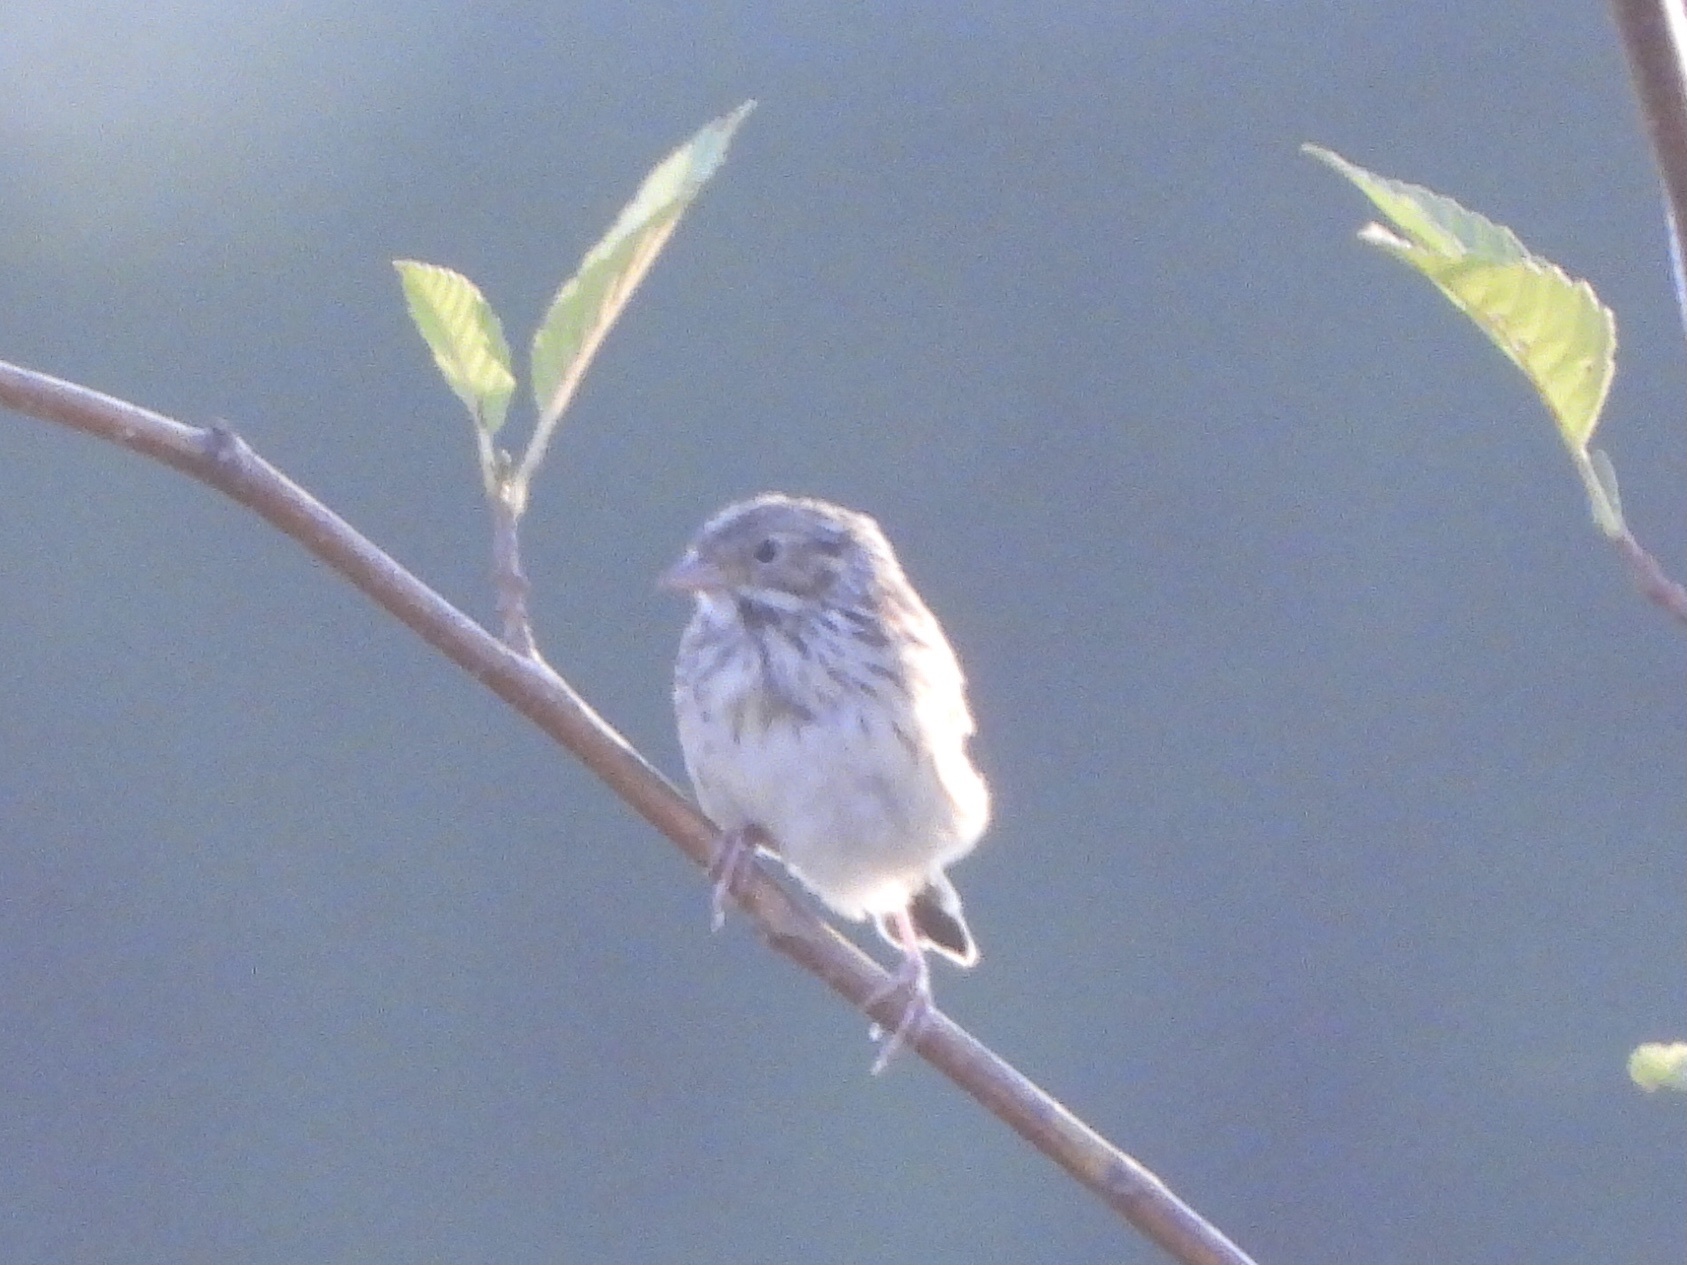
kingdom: Animalia
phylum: Chordata
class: Aves
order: Passeriformes
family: Passerellidae
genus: Passerculus
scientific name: Passerculus sandwichensis
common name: Savannah sparrow
